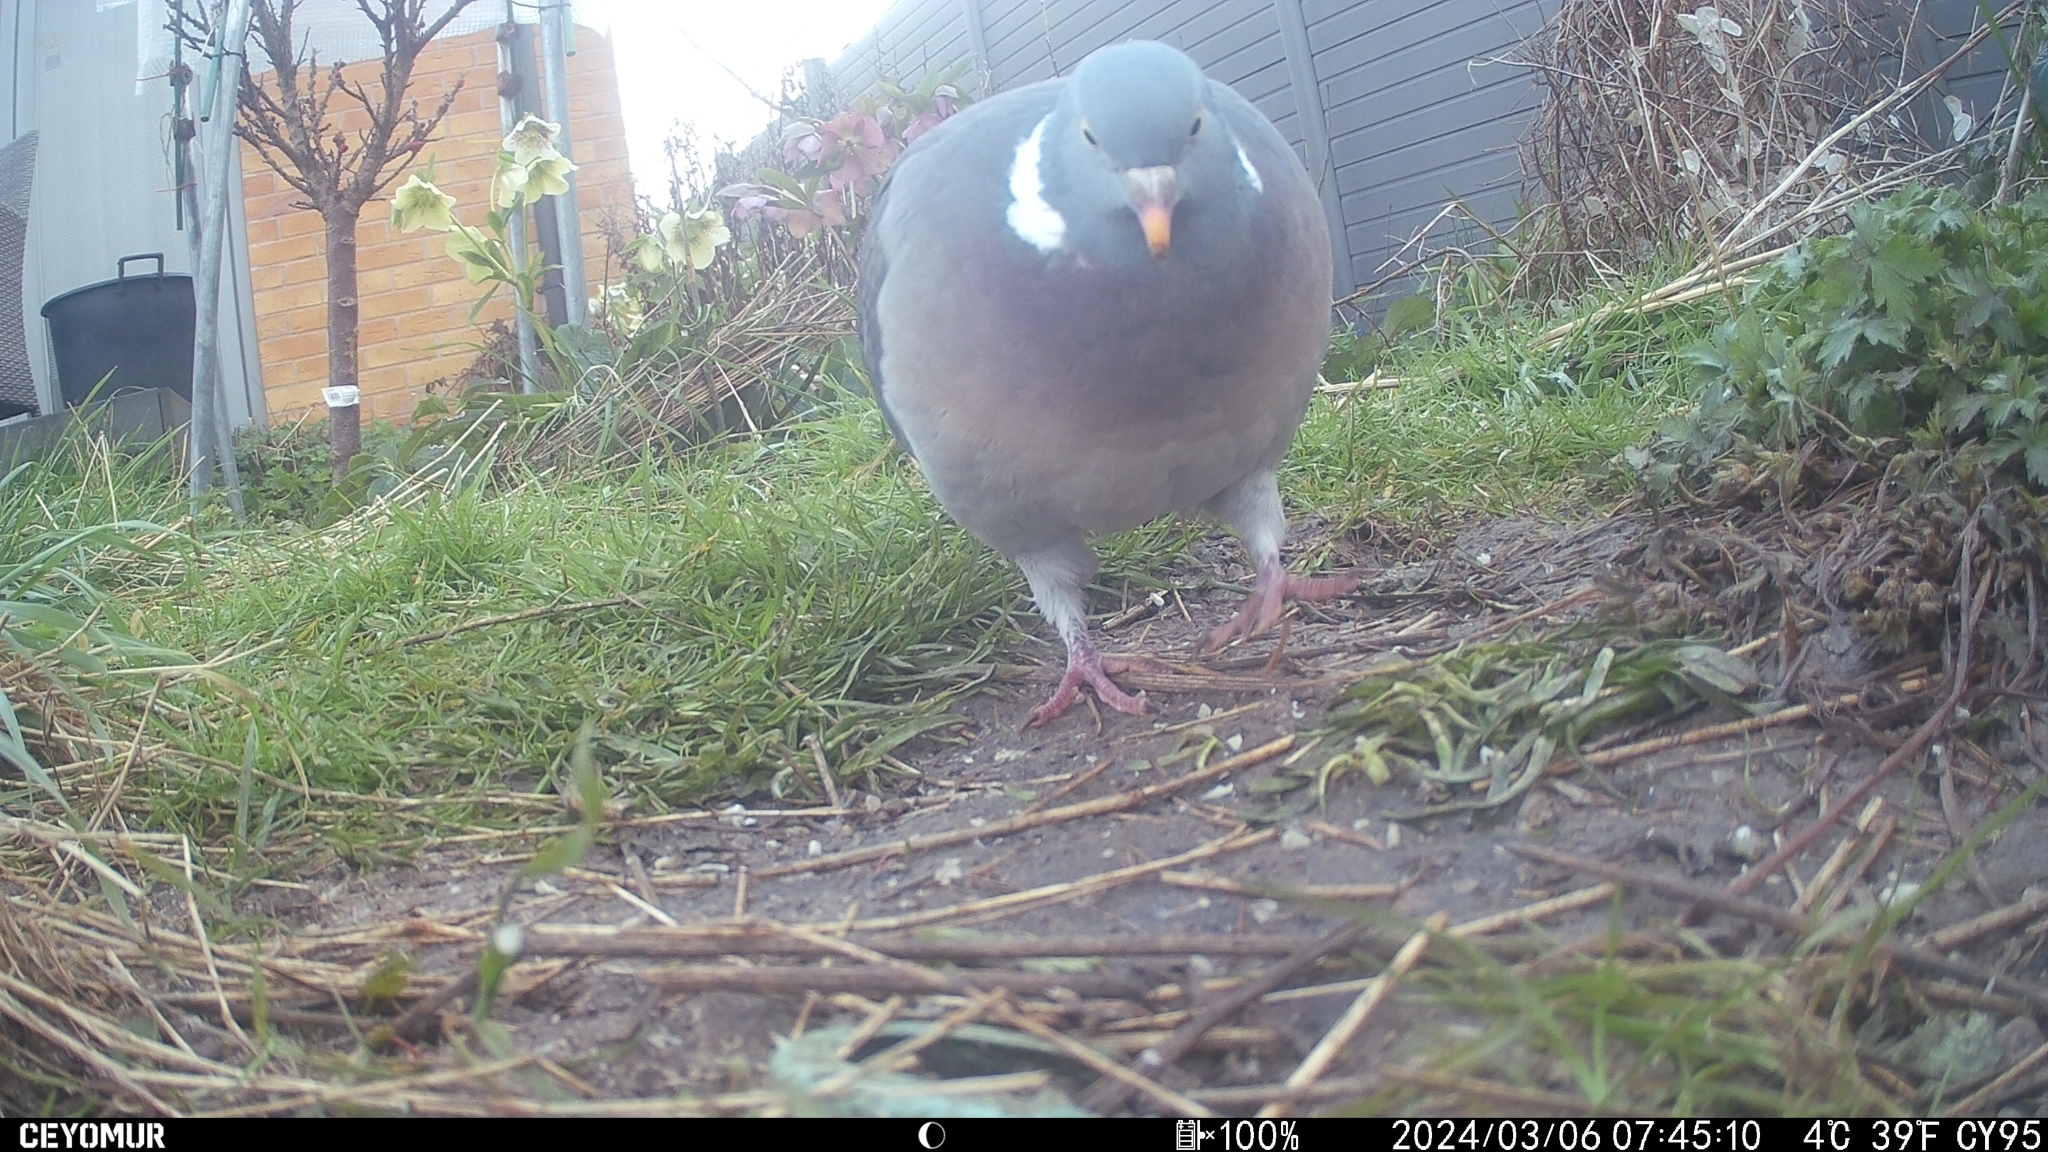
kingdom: Animalia
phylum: Chordata
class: Aves
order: Columbiformes
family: Columbidae
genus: Columba
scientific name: Columba palumbus
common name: Common wood pigeon
